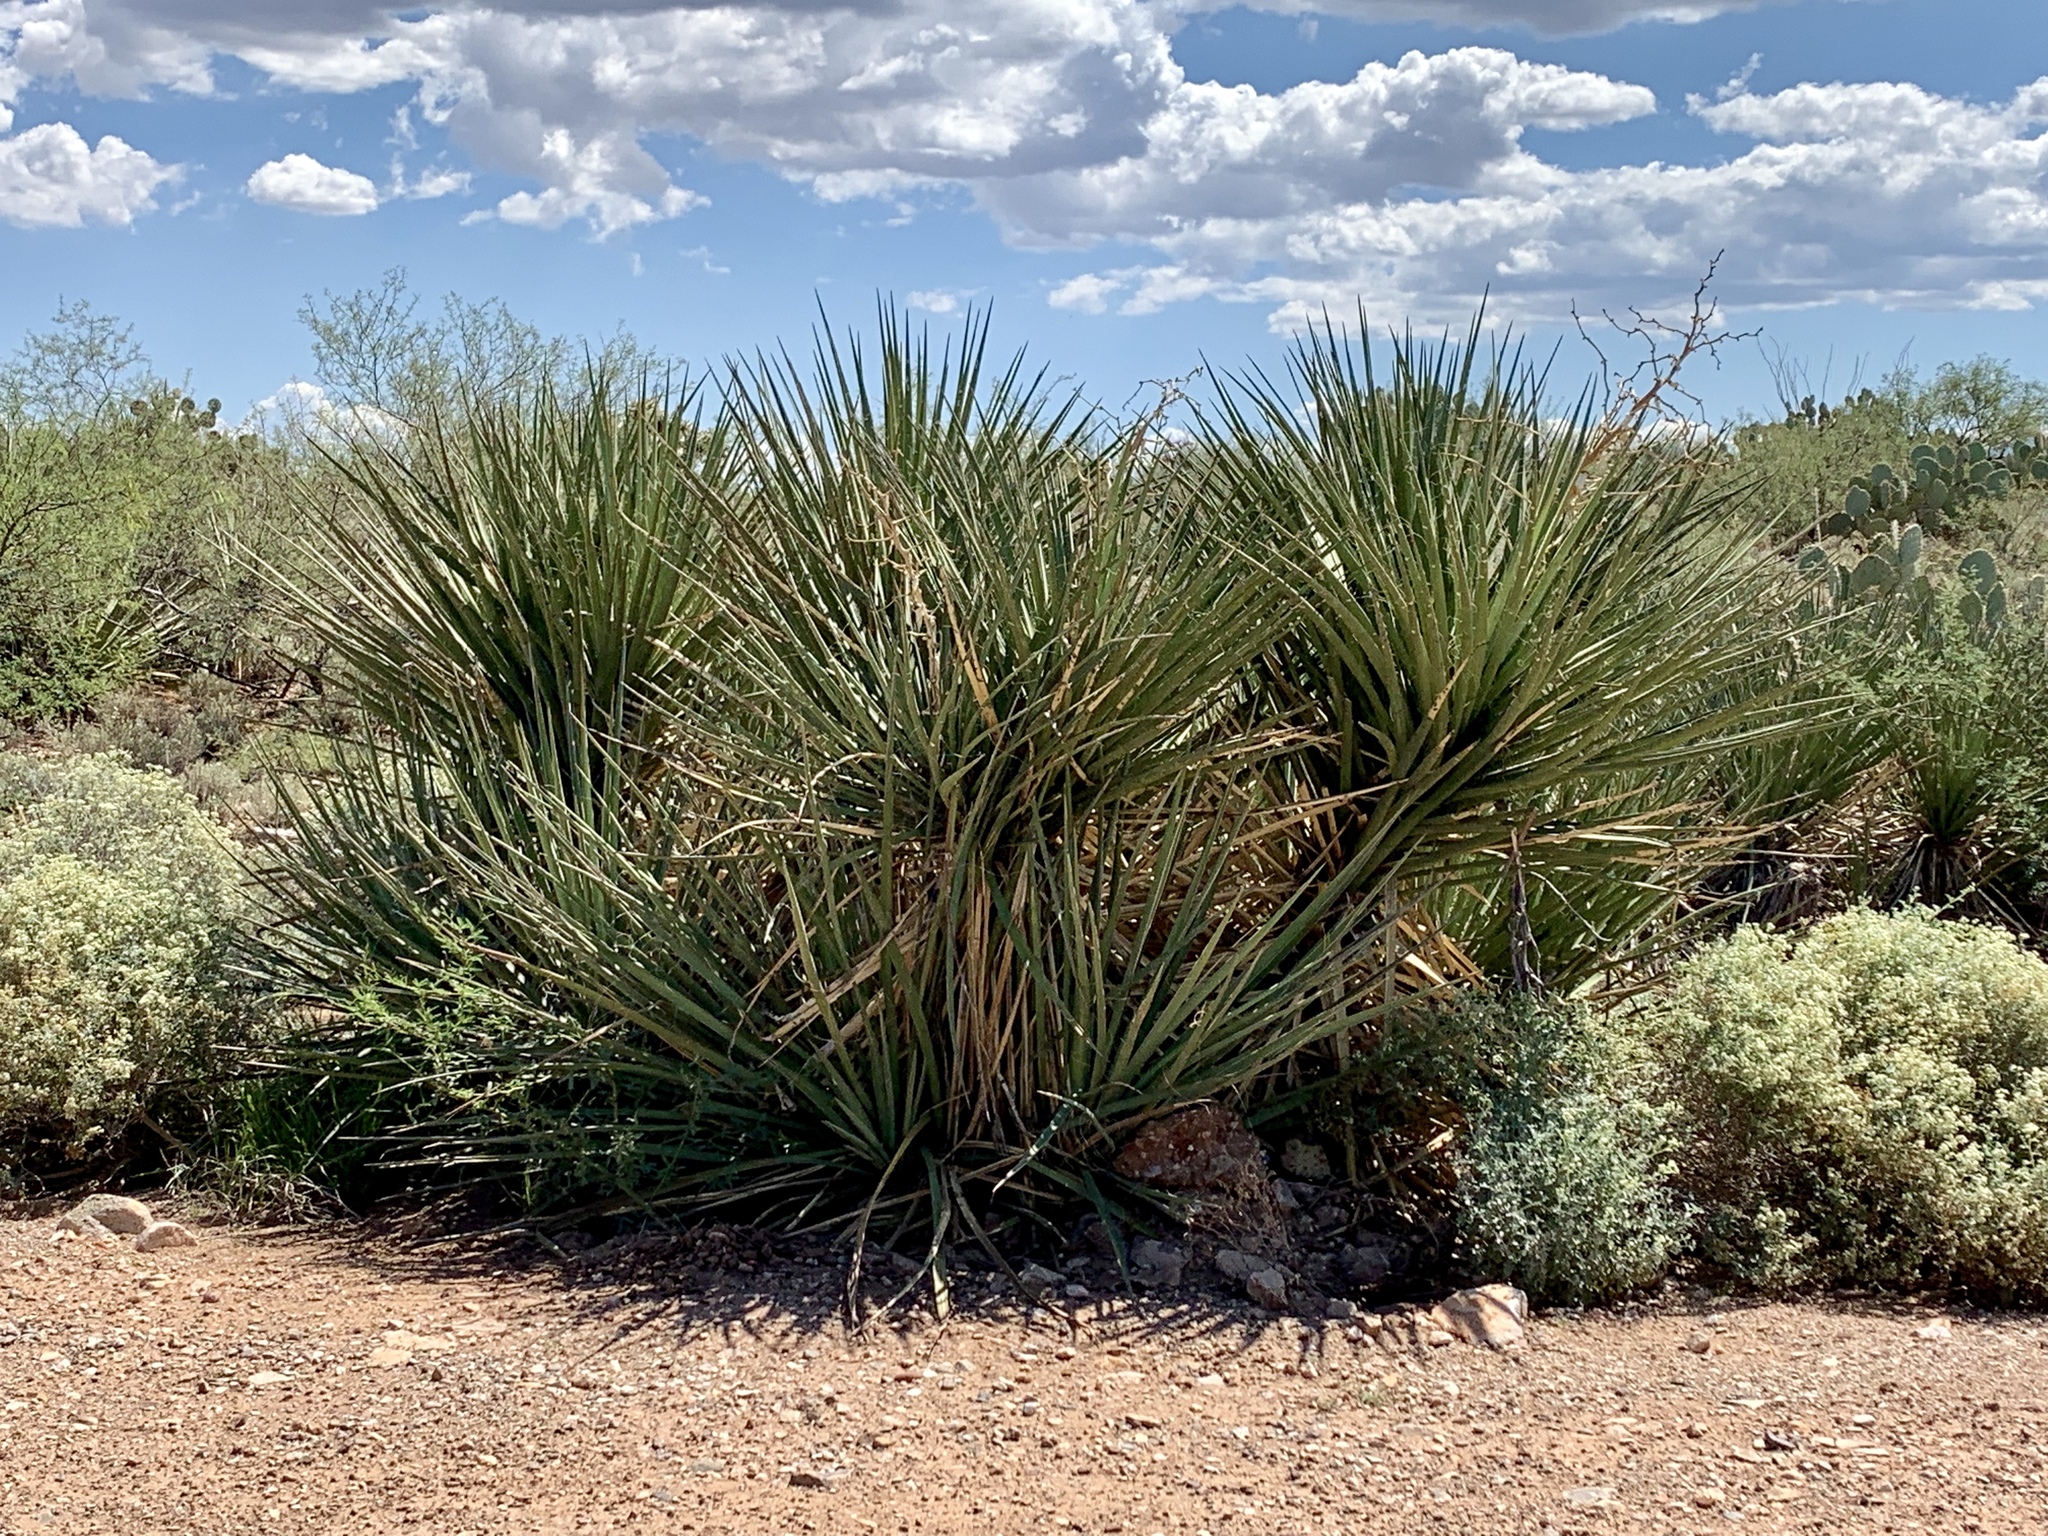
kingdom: Plantae
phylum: Tracheophyta
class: Liliopsida
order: Asparagales
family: Asparagaceae
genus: Yucca
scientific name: Yucca baccata
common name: Banana yucca
